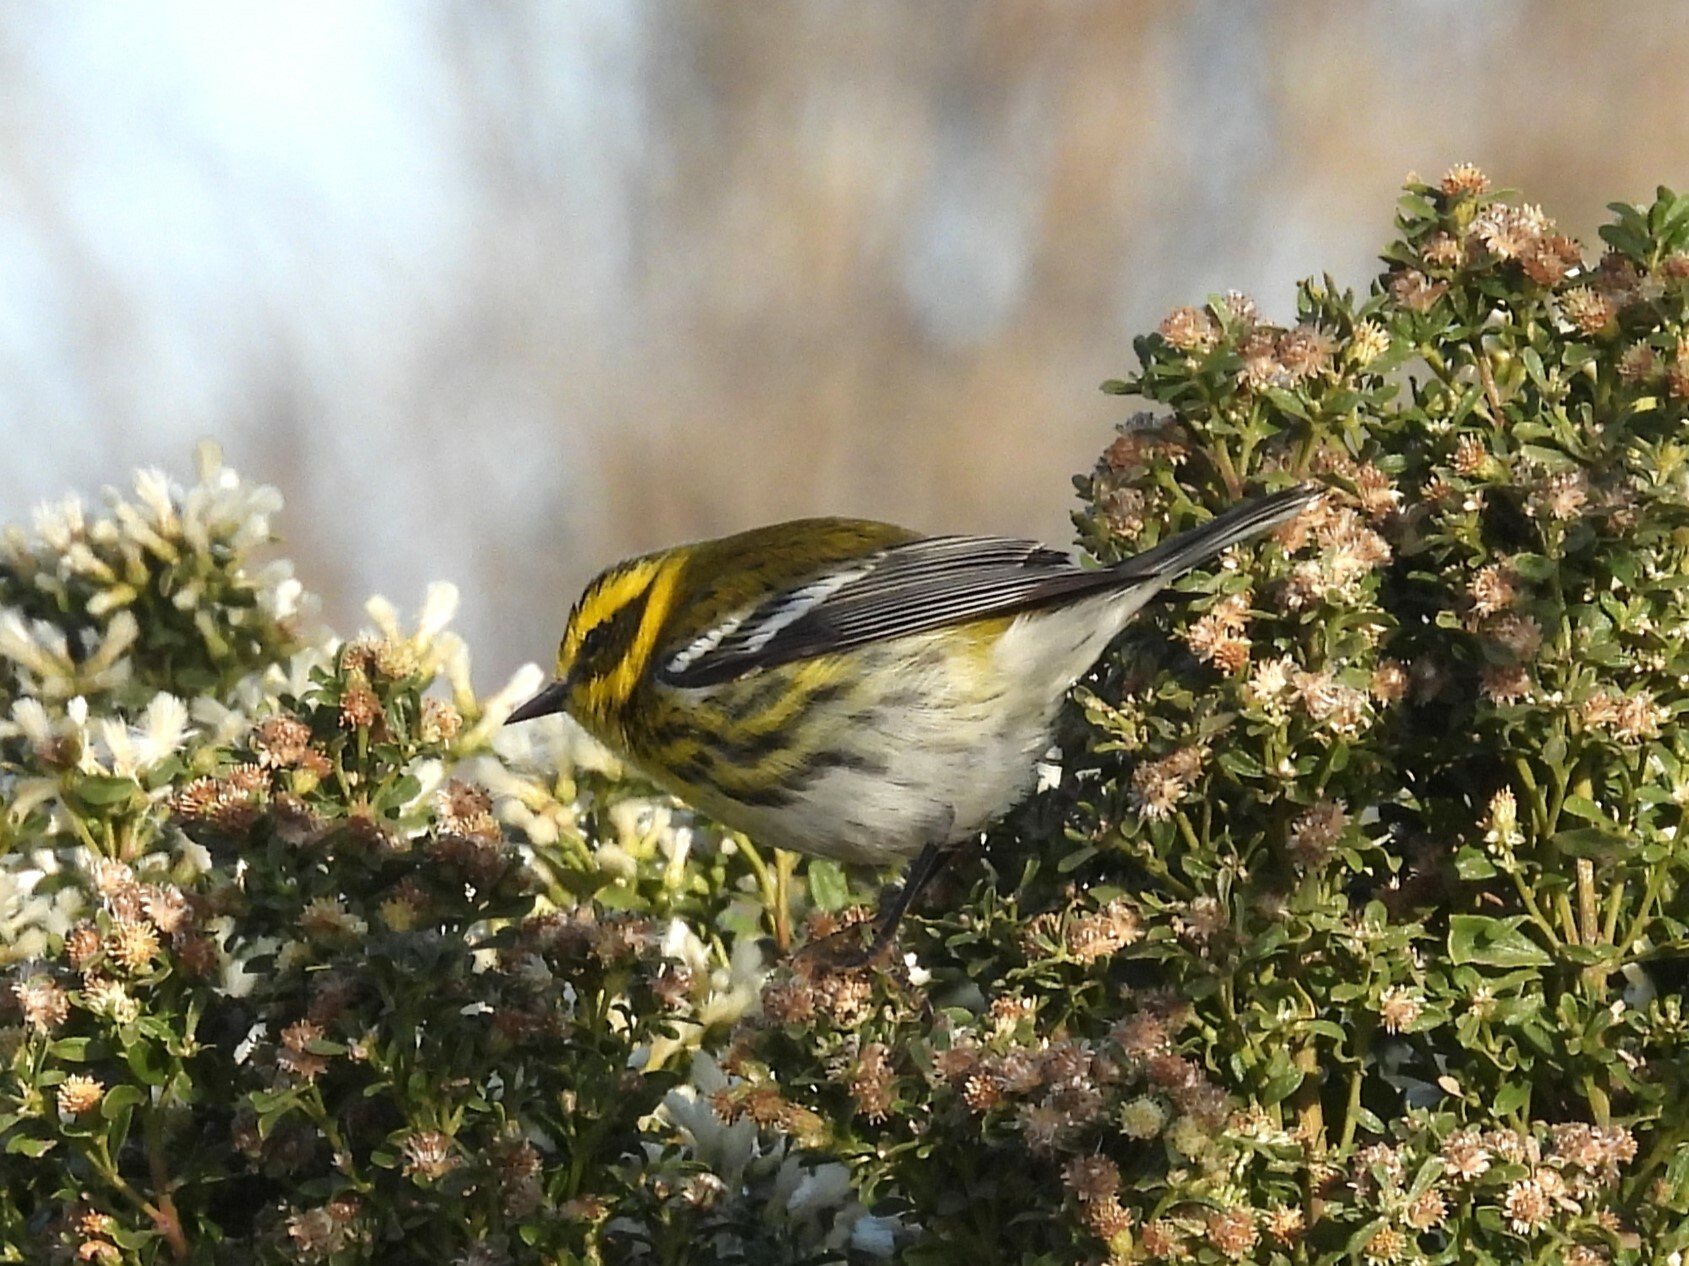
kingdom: Animalia
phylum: Chordata
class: Aves
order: Passeriformes
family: Parulidae
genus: Setophaga
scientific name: Setophaga townsendi
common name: Townsend's warbler
